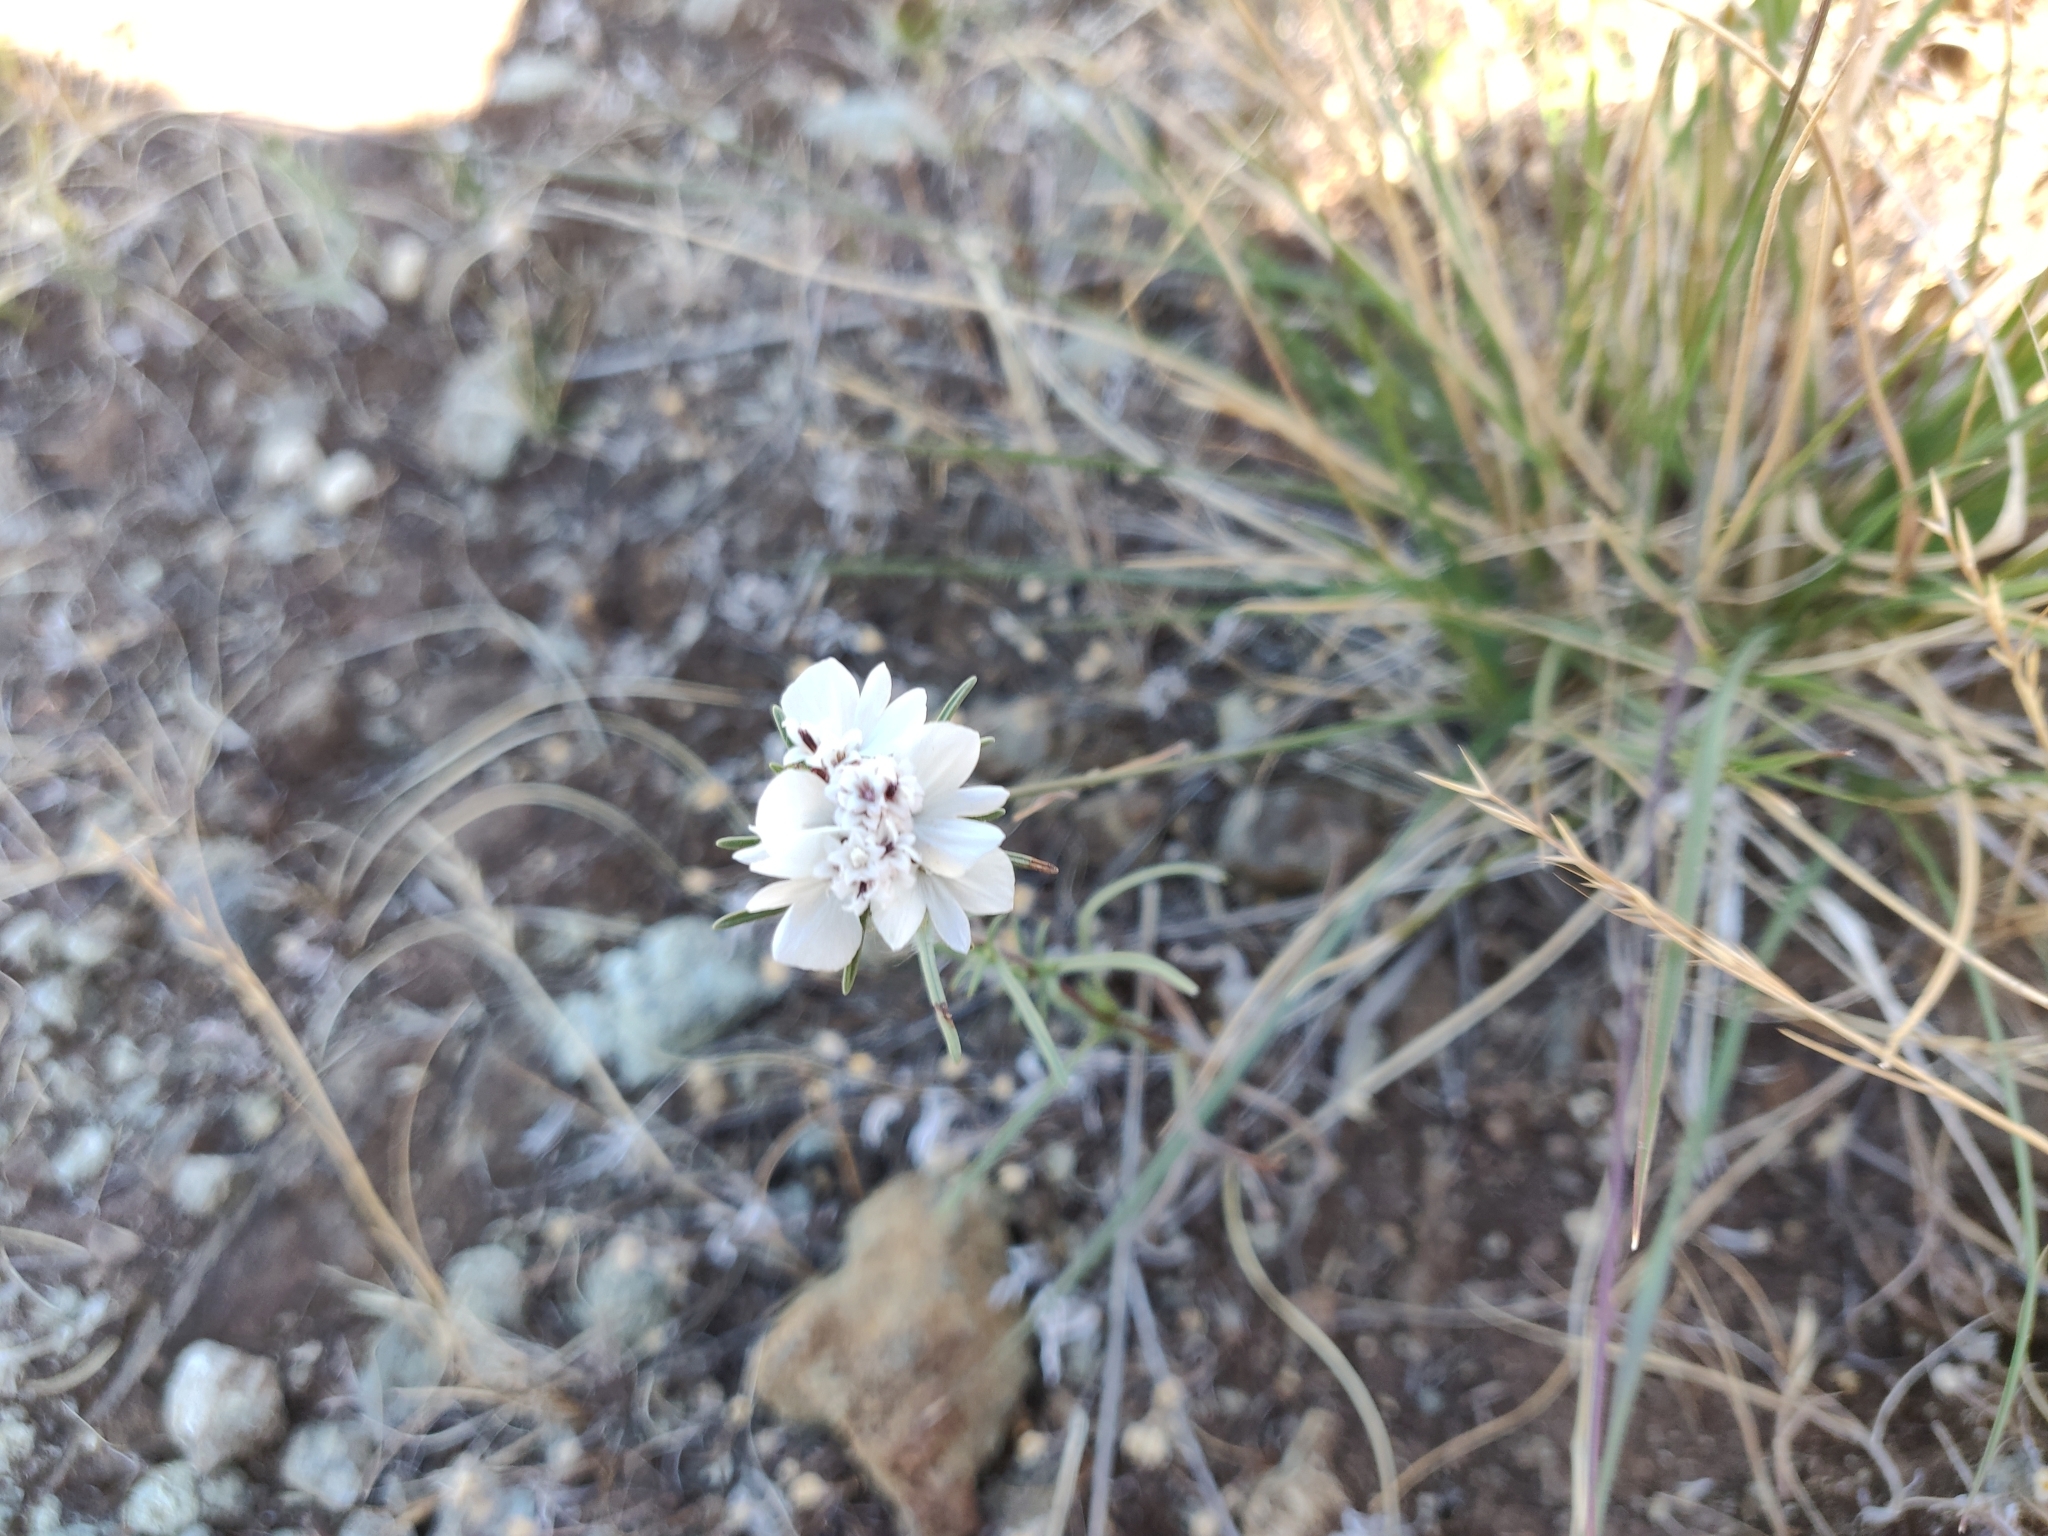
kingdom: Plantae
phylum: Tracheophyta
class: Magnoliopsida
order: Asterales
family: Asteraceae
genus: Calycadenia
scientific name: Calycadenia multiglandulosa
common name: Sticky calycadenia
